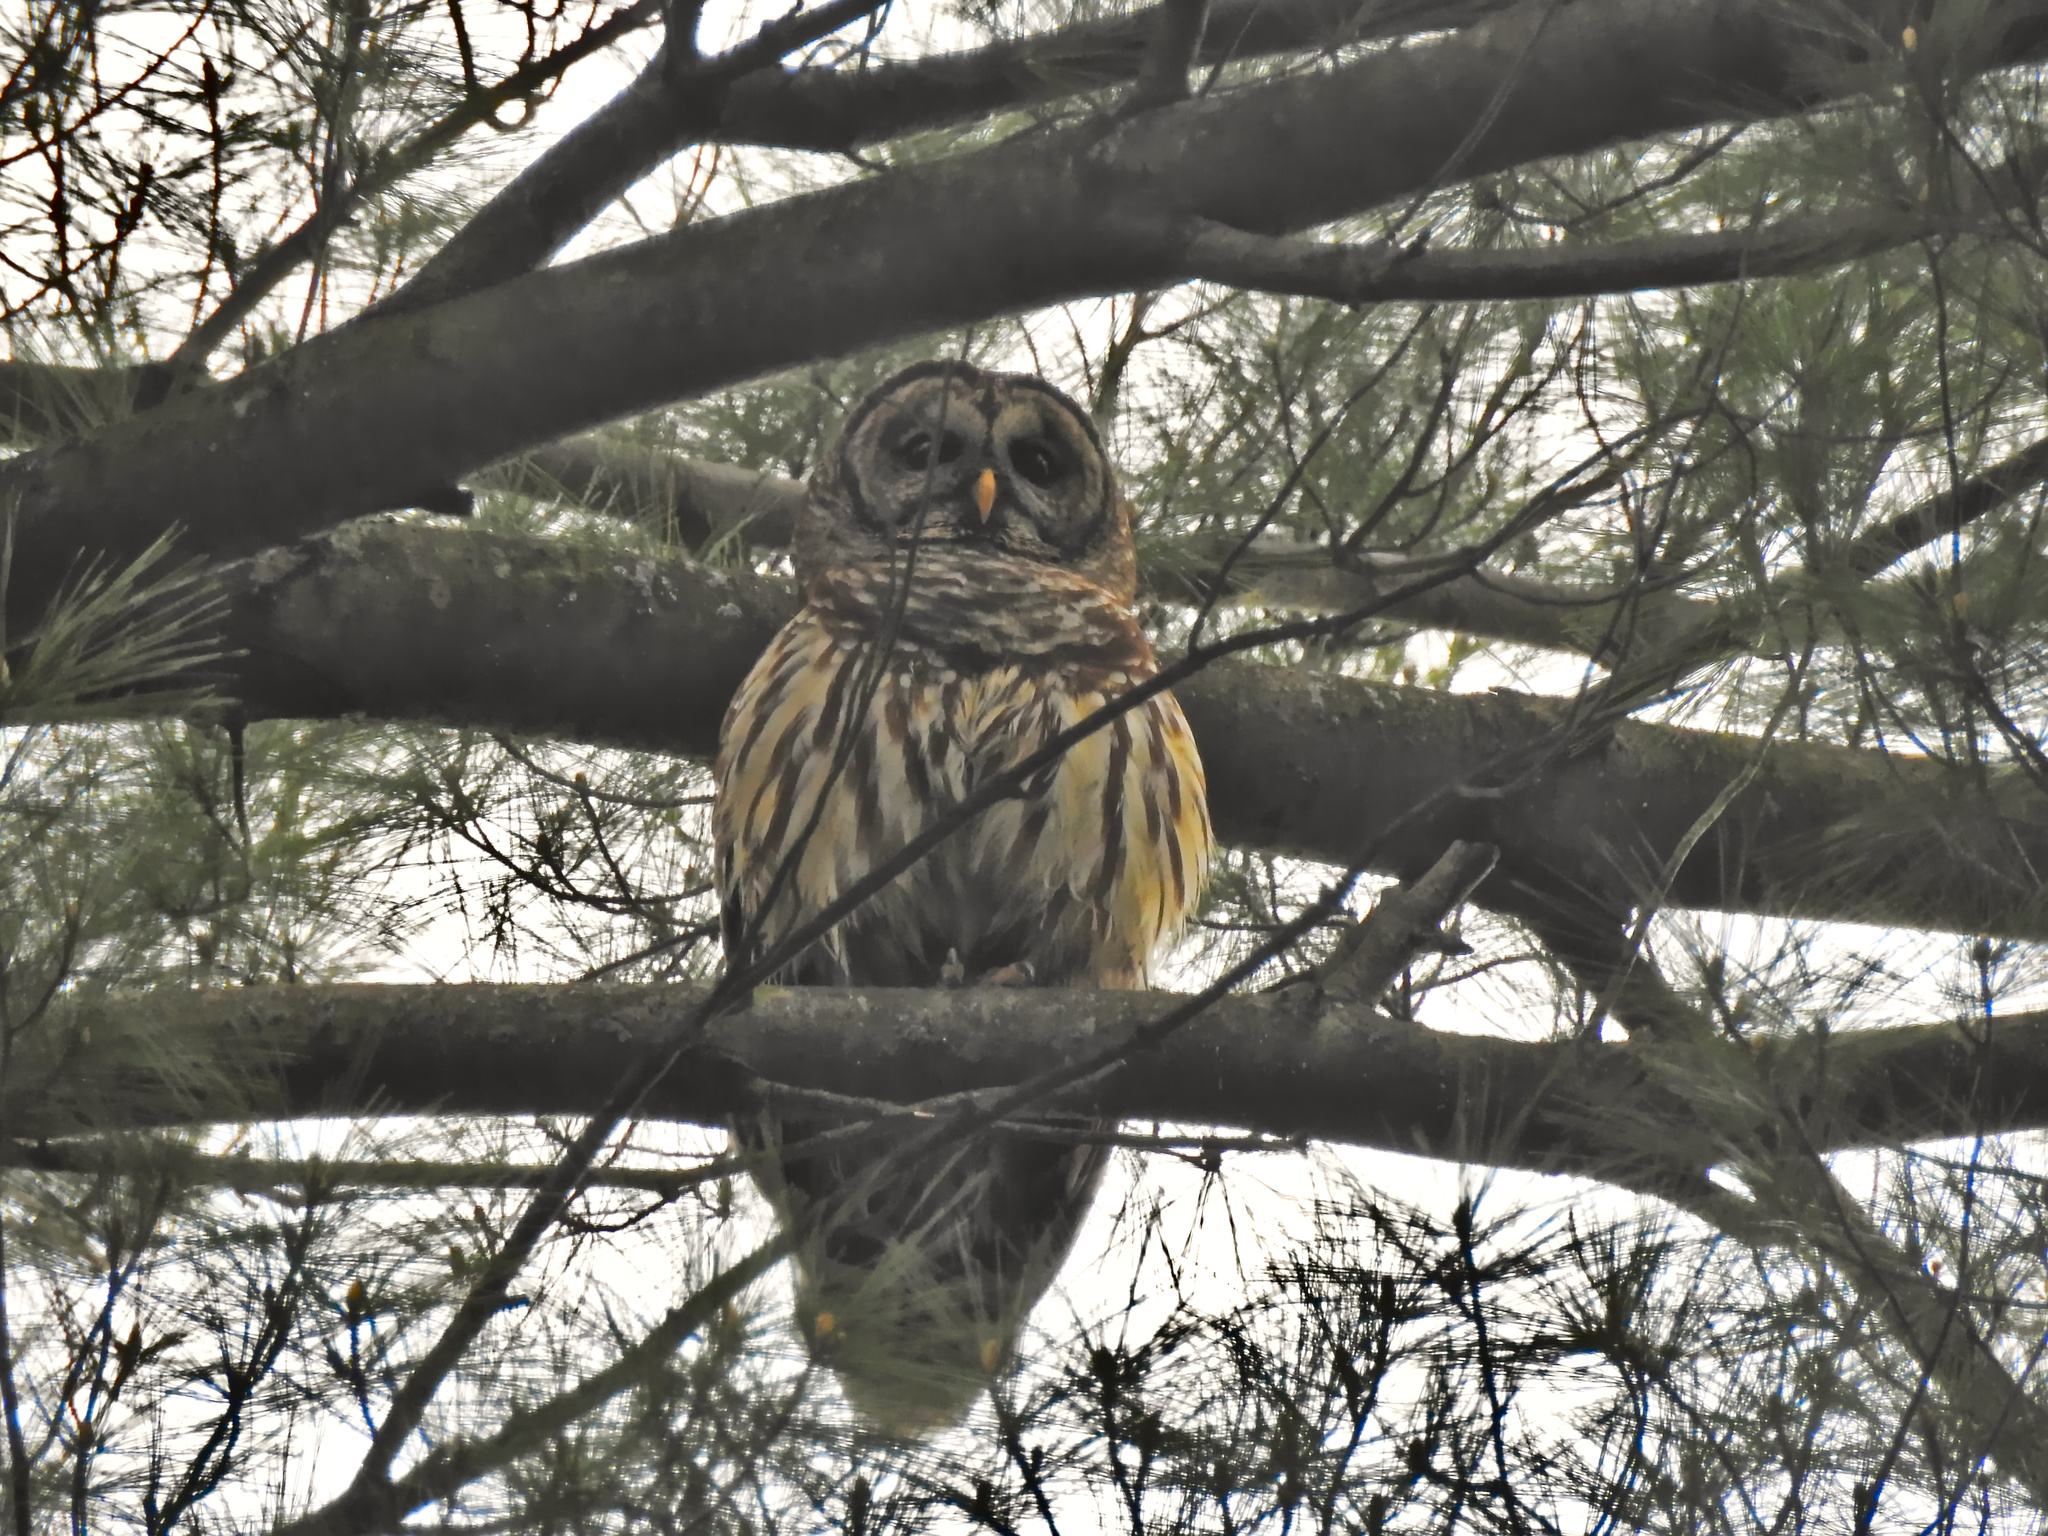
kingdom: Animalia
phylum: Chordata
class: Aves
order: Strigiformes
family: Strigidae
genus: Strix
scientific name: Strix varia
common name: Barred owl
